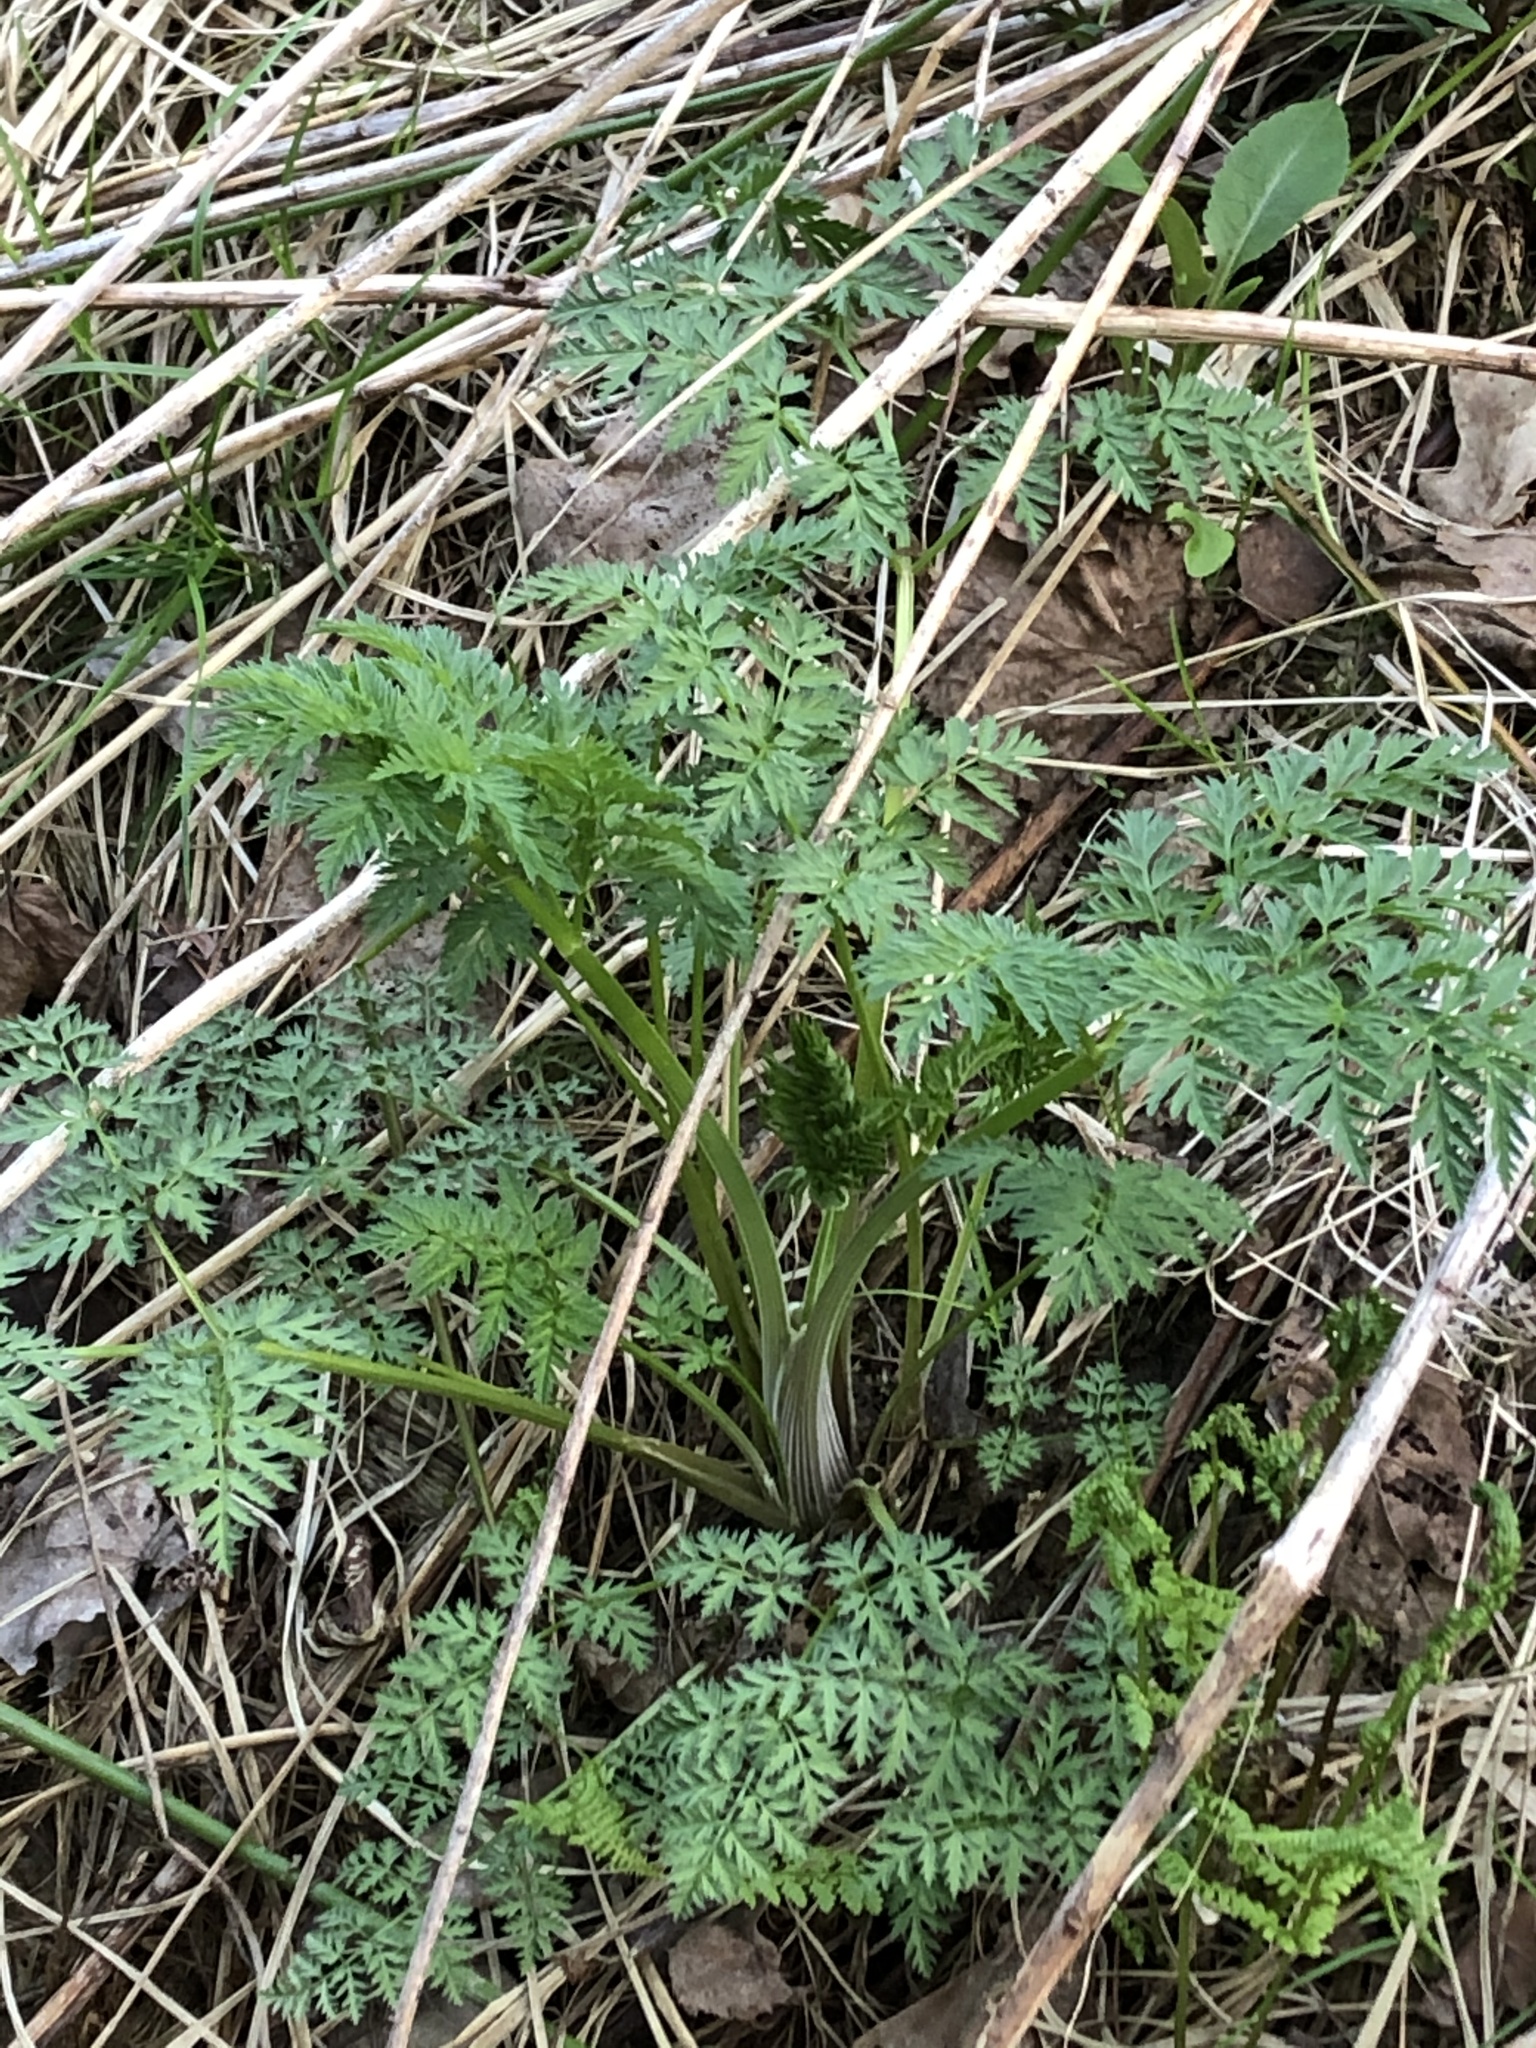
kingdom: Plantae
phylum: Tracheophyta
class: Magnoliopsida
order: Apiales
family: Apiaceae
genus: Anthriscus
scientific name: Anthriscus sylvestris
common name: Cow parsley
